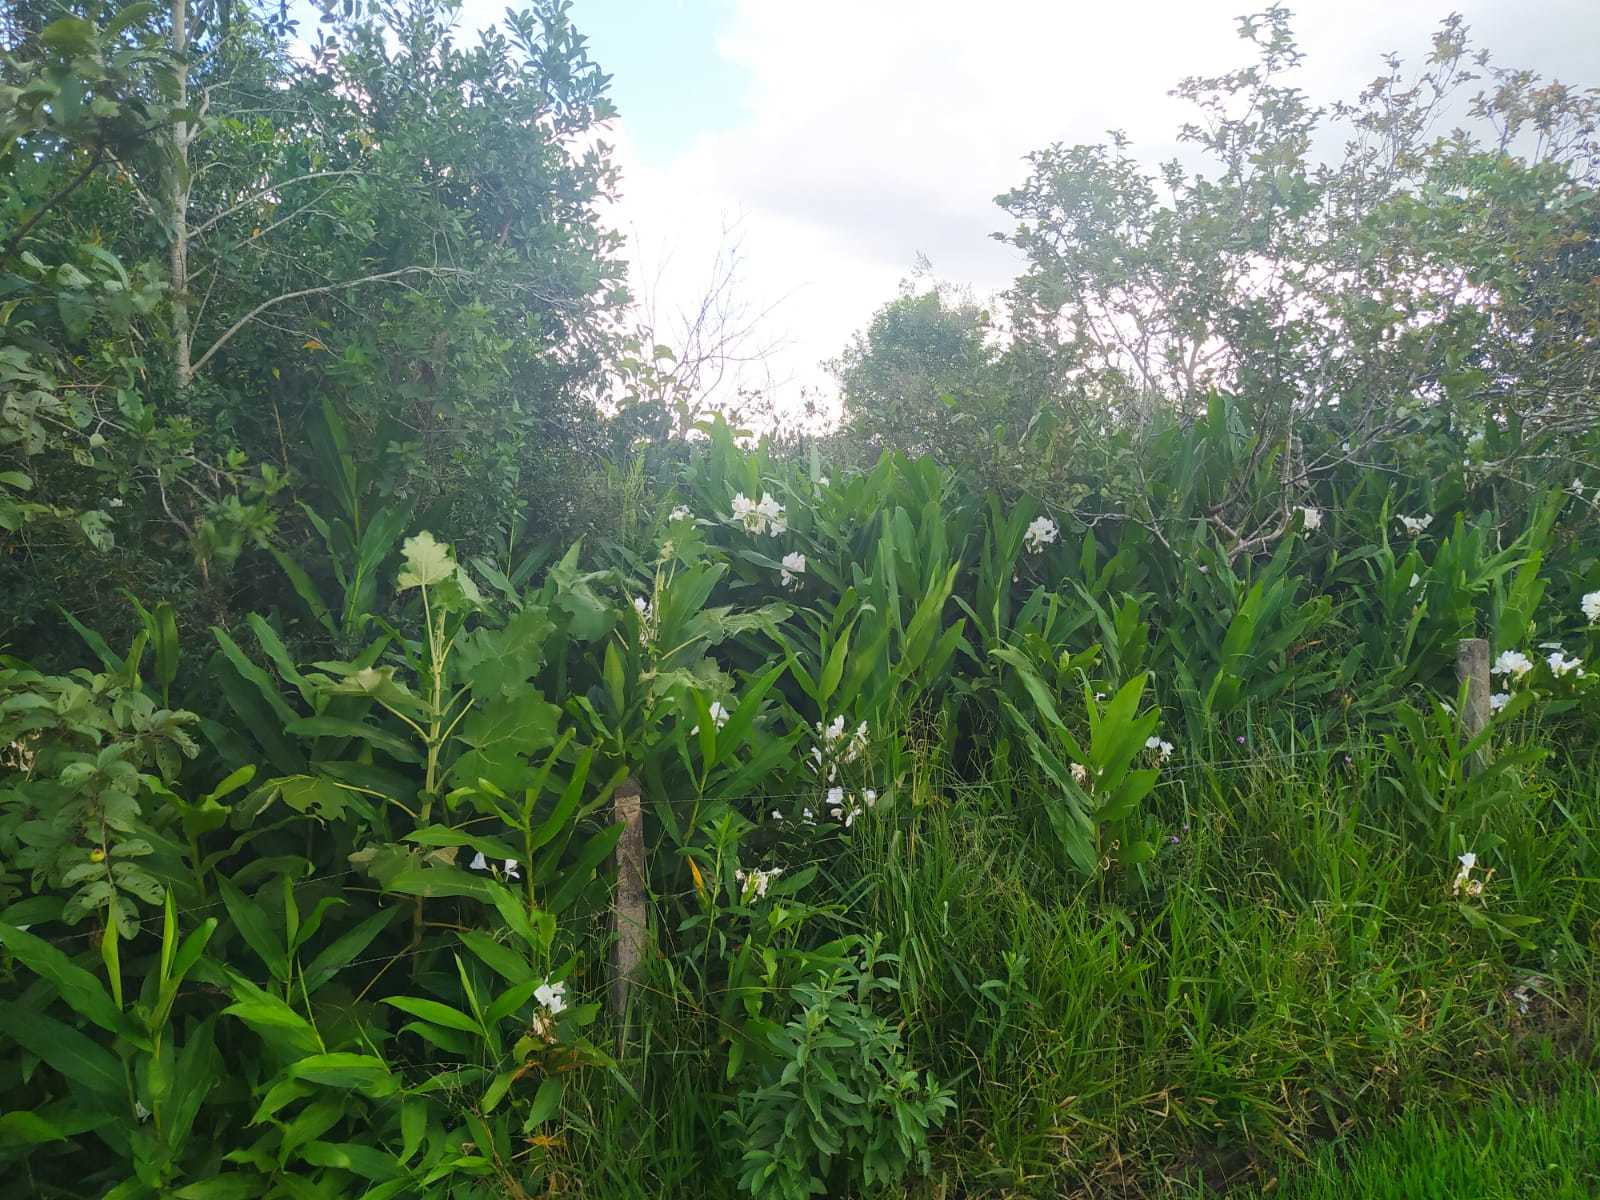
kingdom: Plantae
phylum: Tracheophyta
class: Liliopsida
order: Zingiberales
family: Zingiberaceae
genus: Hedychium
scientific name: Hedychium coronarium
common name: White garland-lily
